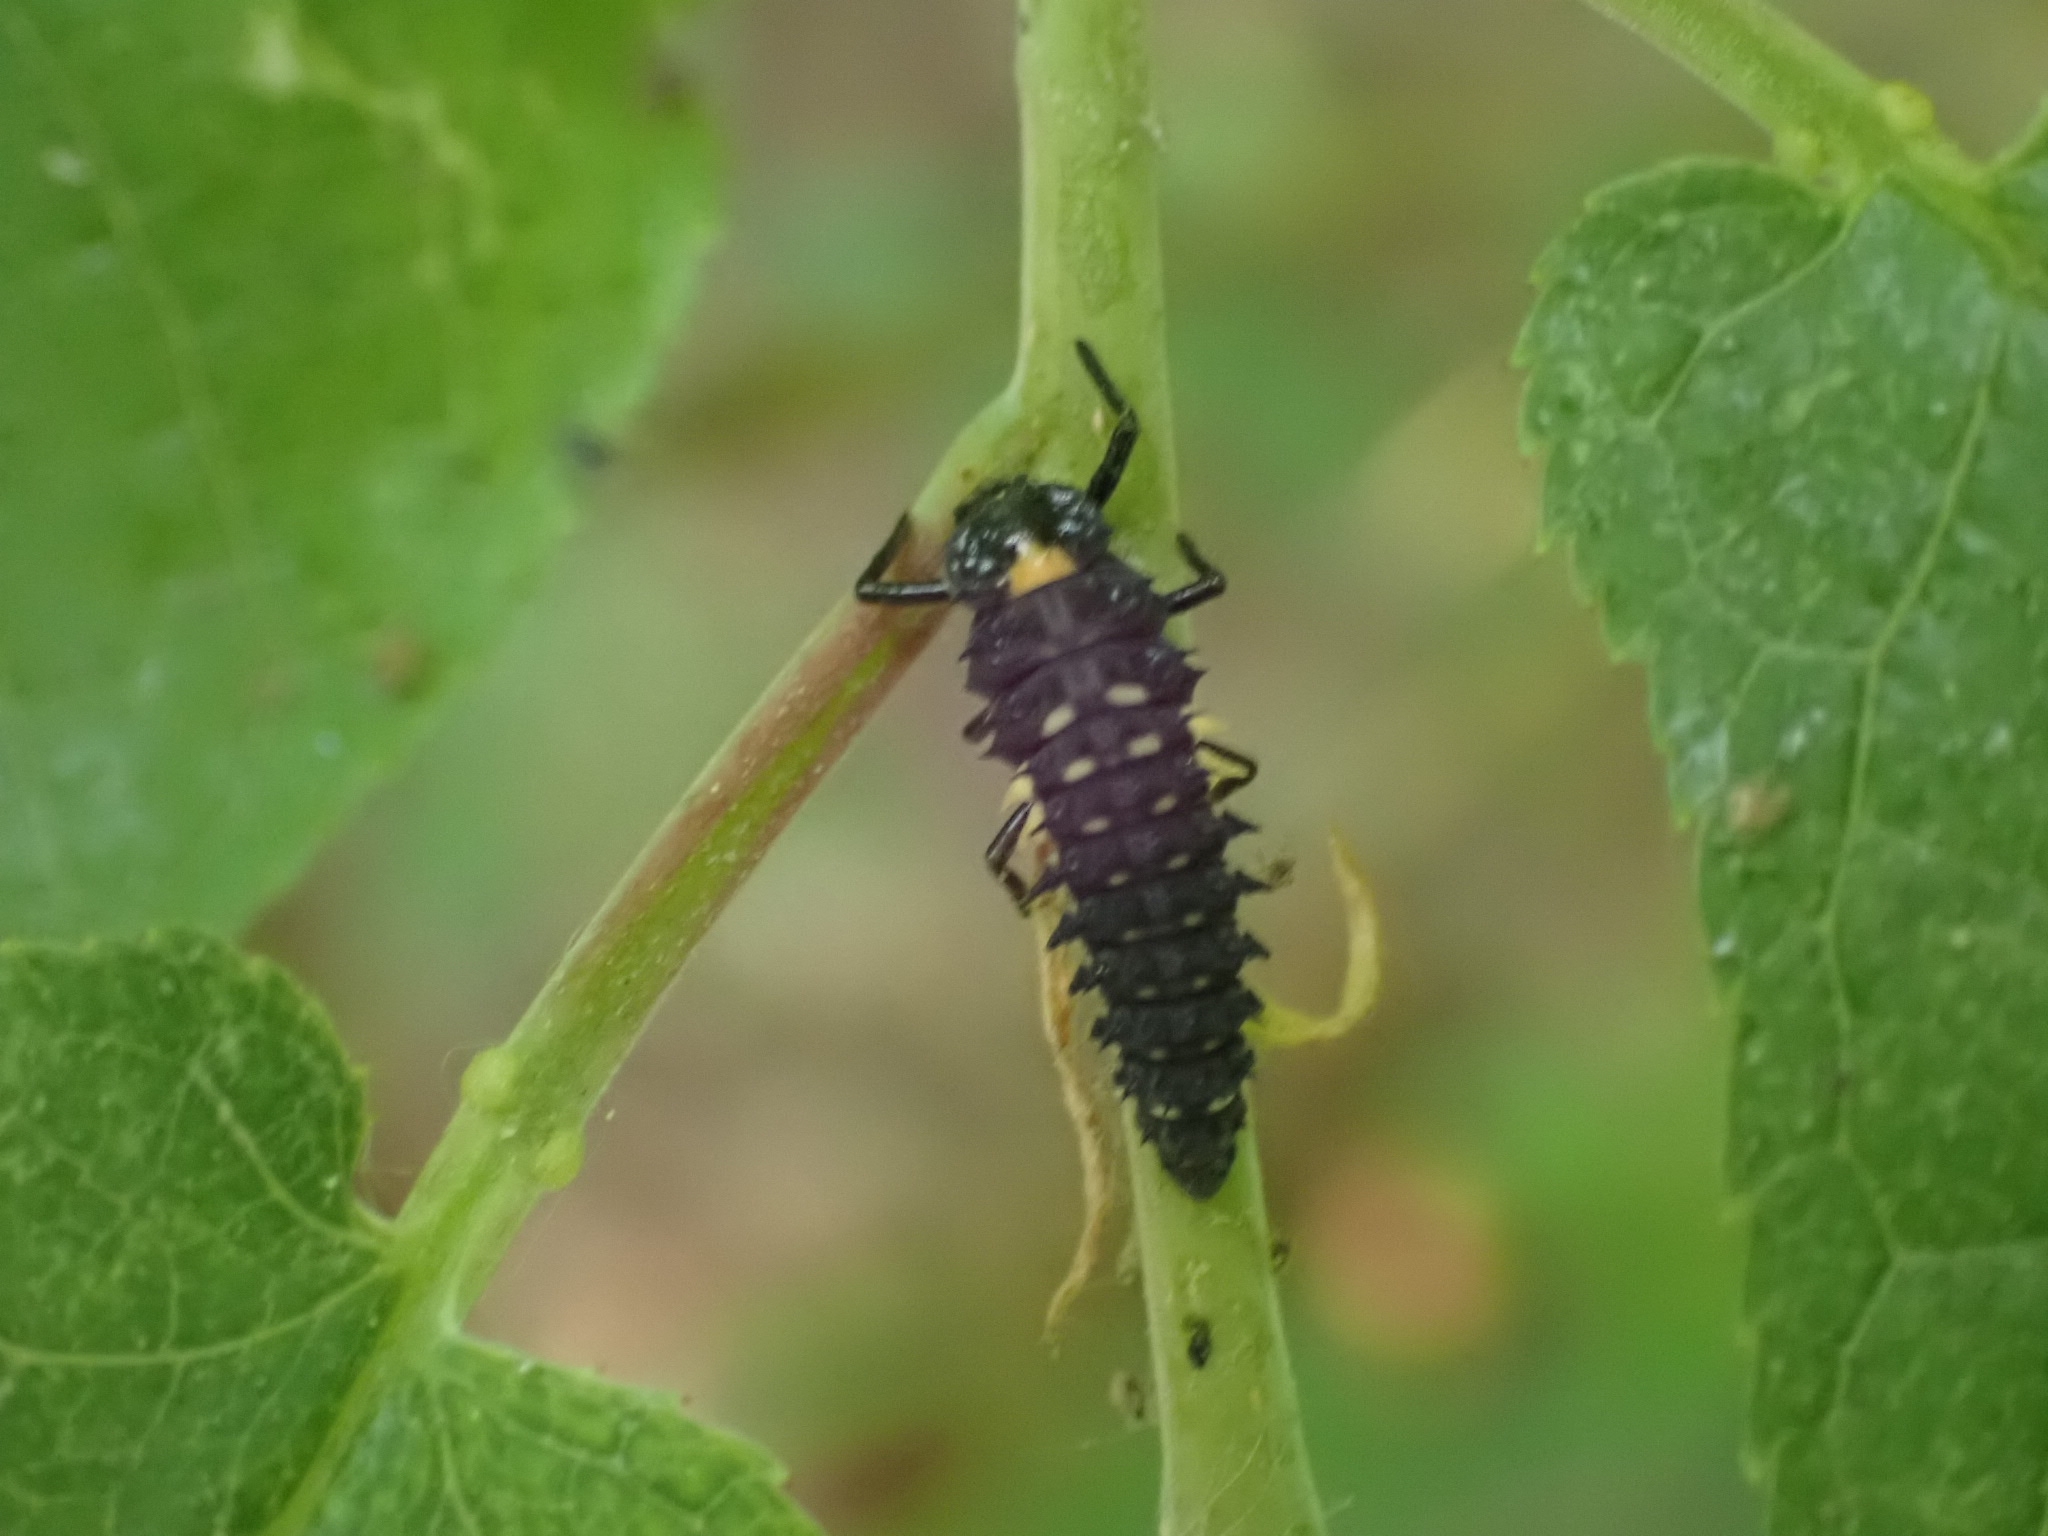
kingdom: Animalia
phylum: Arthropoda
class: Insecta
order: Coleoptera
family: Coccinellidae
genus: Anatis
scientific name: Anatis ocellata
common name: Eyed ladybird
